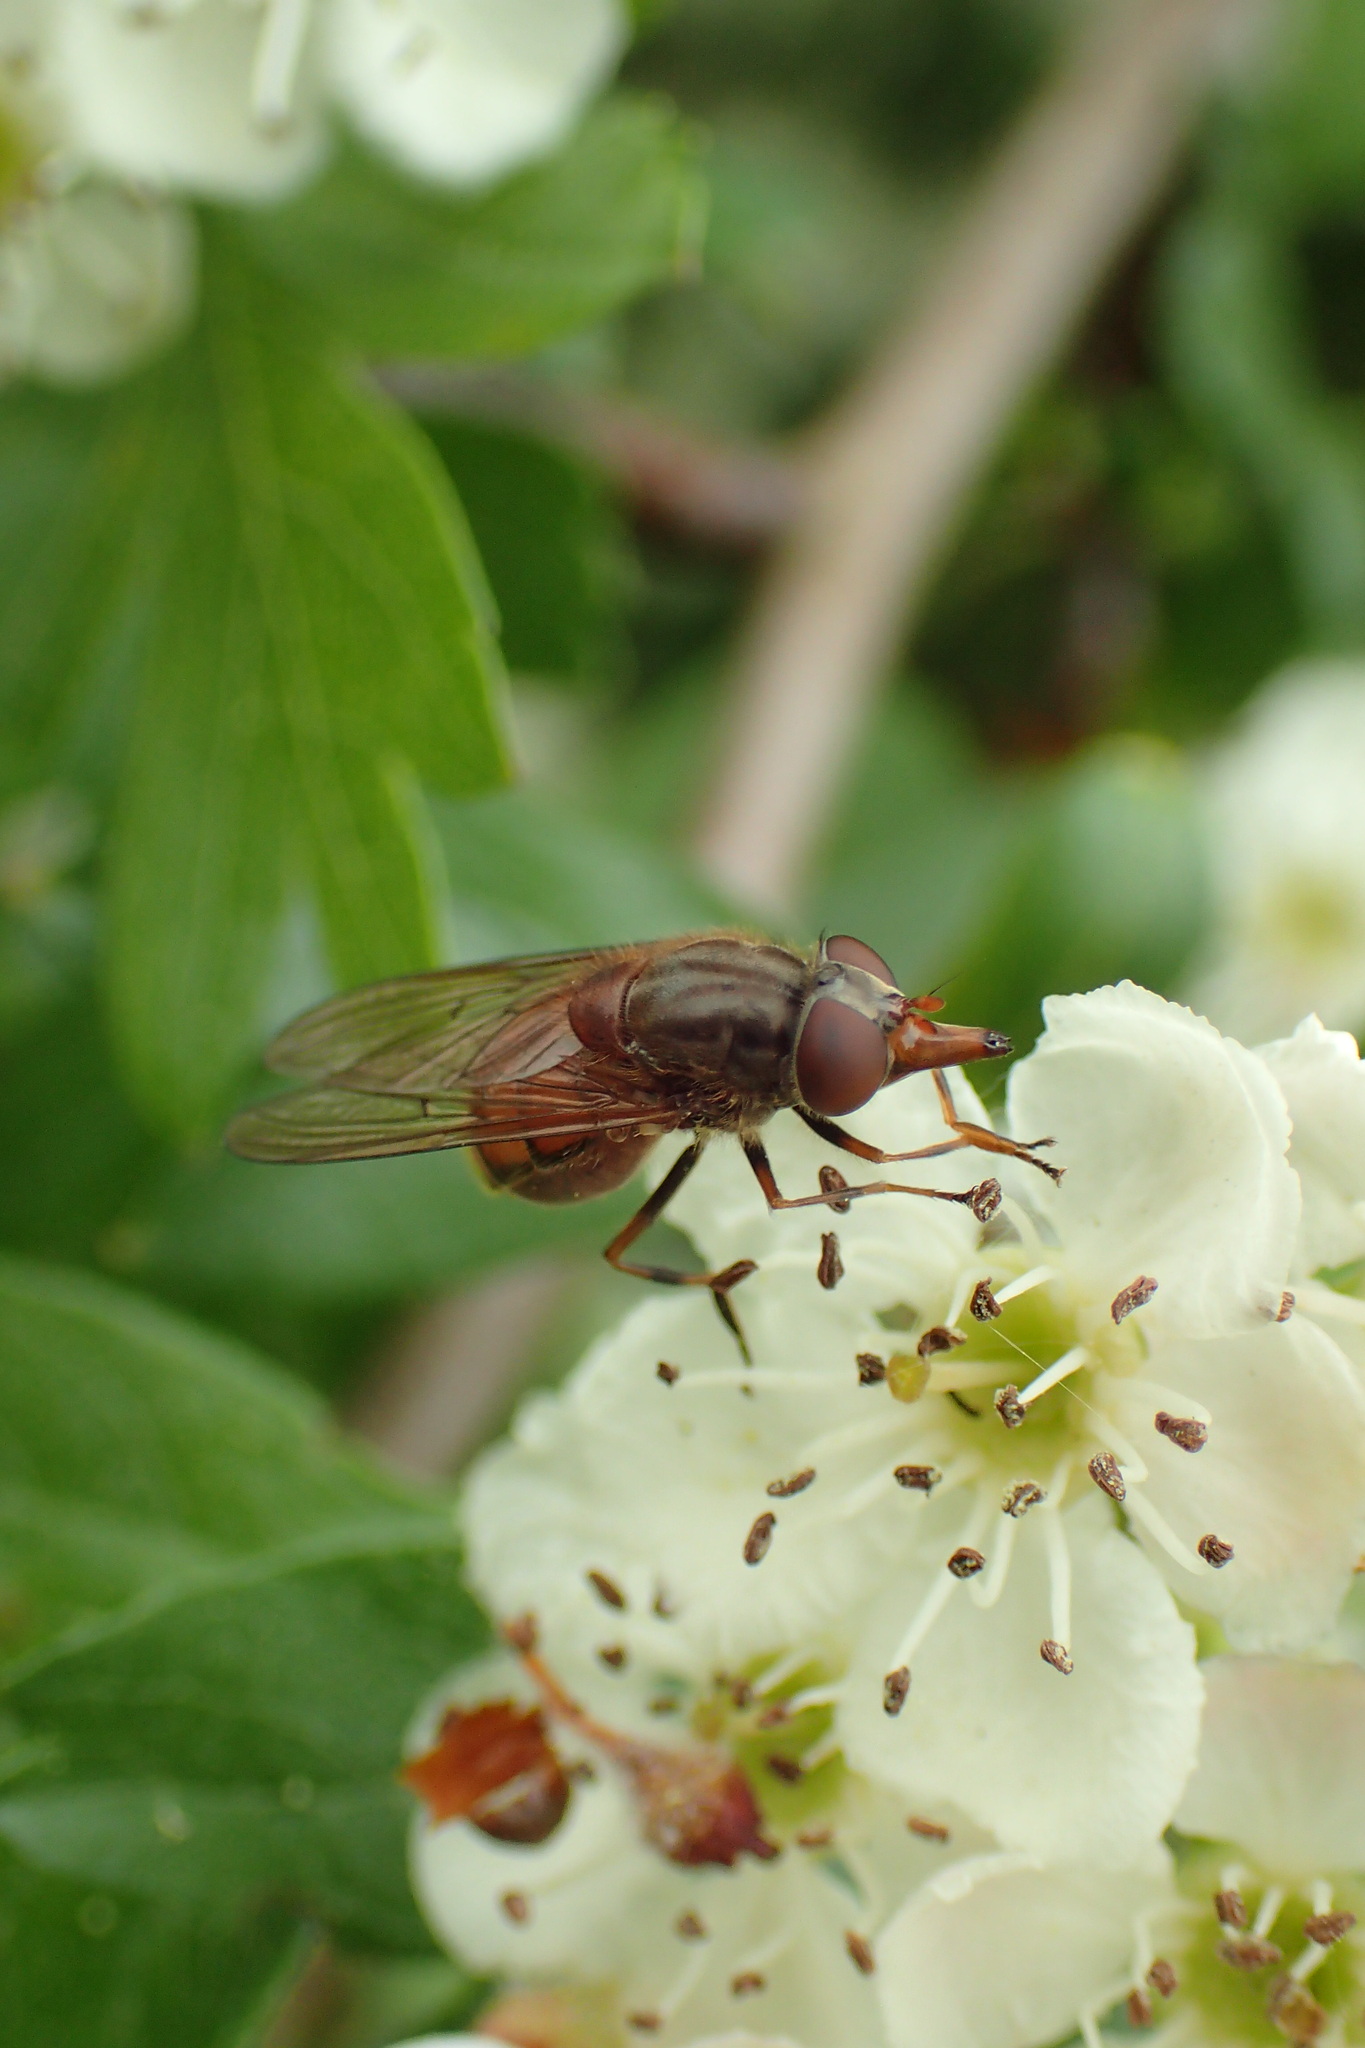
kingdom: Animalia
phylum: Arthropoda
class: Insecta
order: Diptera
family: Syrphidae
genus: Rhingia
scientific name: Rhingia campestris
